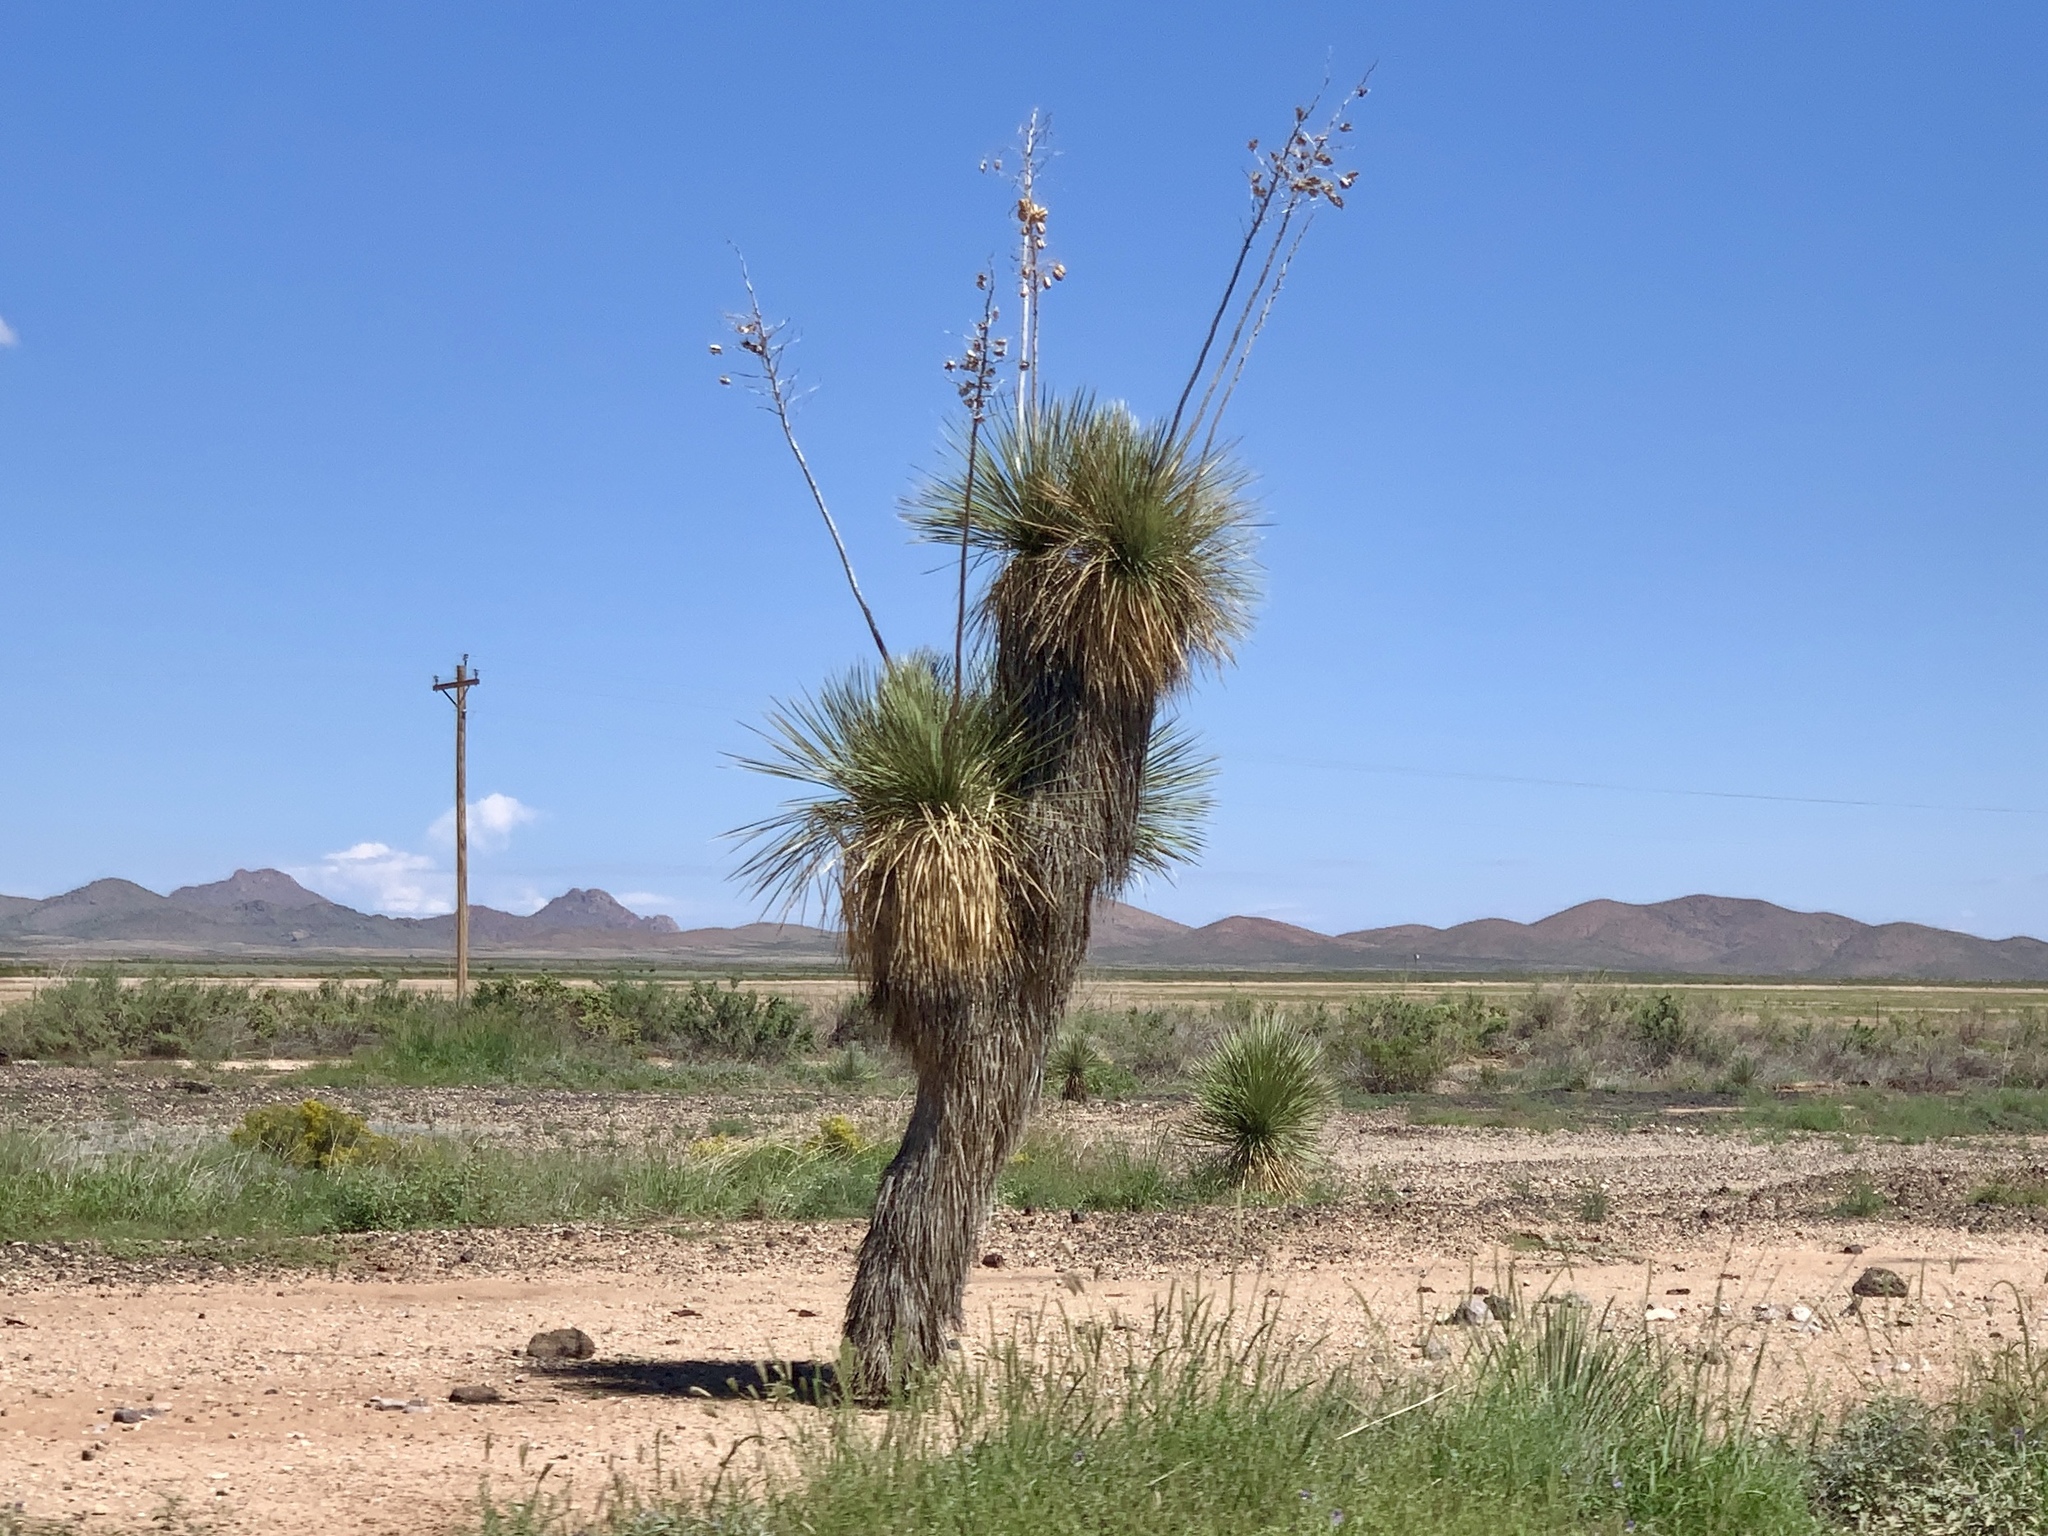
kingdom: Plantae
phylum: Tracheophyta
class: Liliopsida
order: Asparagales
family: Asparagaceae
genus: Yucca
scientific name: Yucca elata
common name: Palmella
